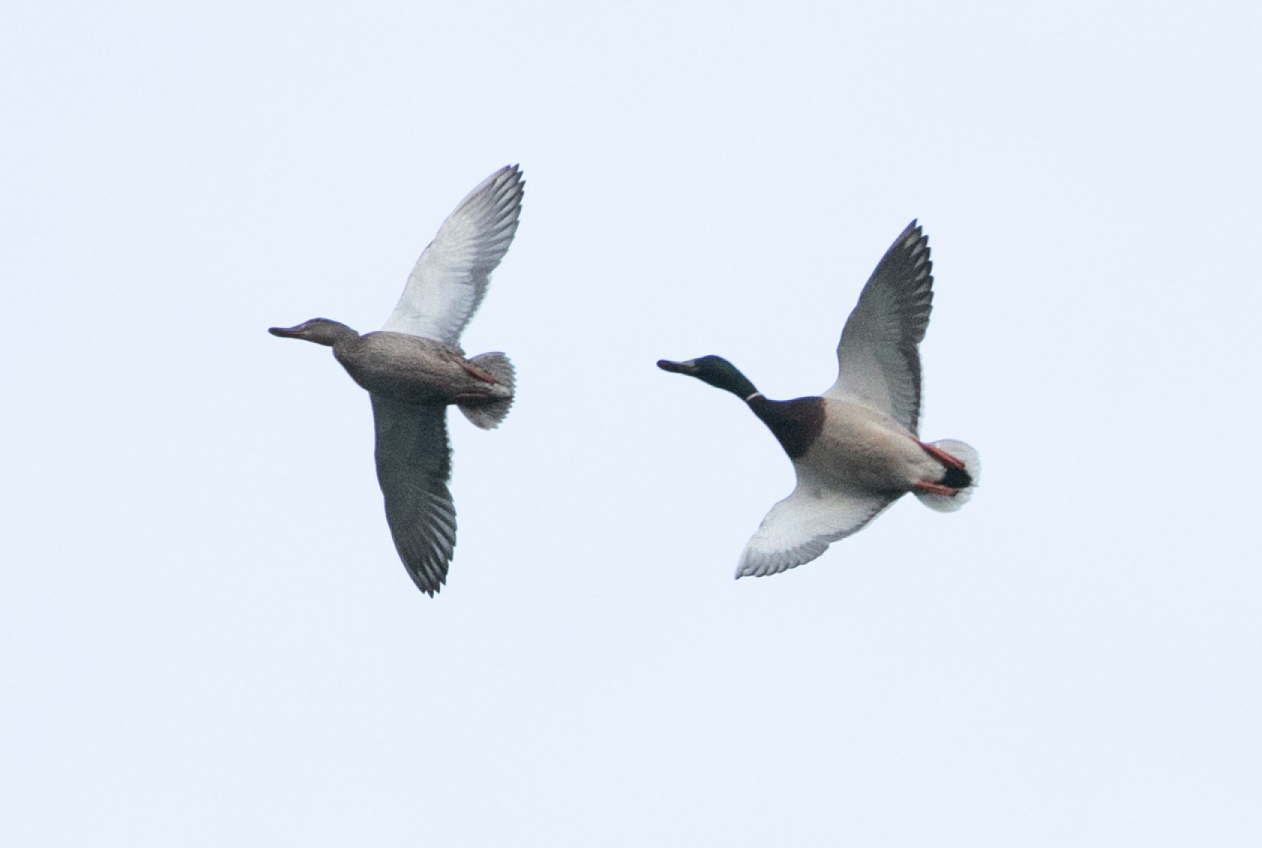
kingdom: Animalia
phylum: Chordata
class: Aves
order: Anseriformes
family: Anatidae
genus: Anas
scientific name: Anas platyrhynchos
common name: Mallard
